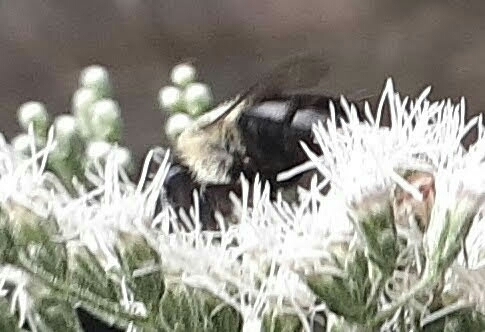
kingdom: Animalia
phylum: Arthropoda
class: Insecta
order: Hymenoptera
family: Apidae
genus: Bombus
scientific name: Bombus impatiens
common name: Common eastern bumble bee
